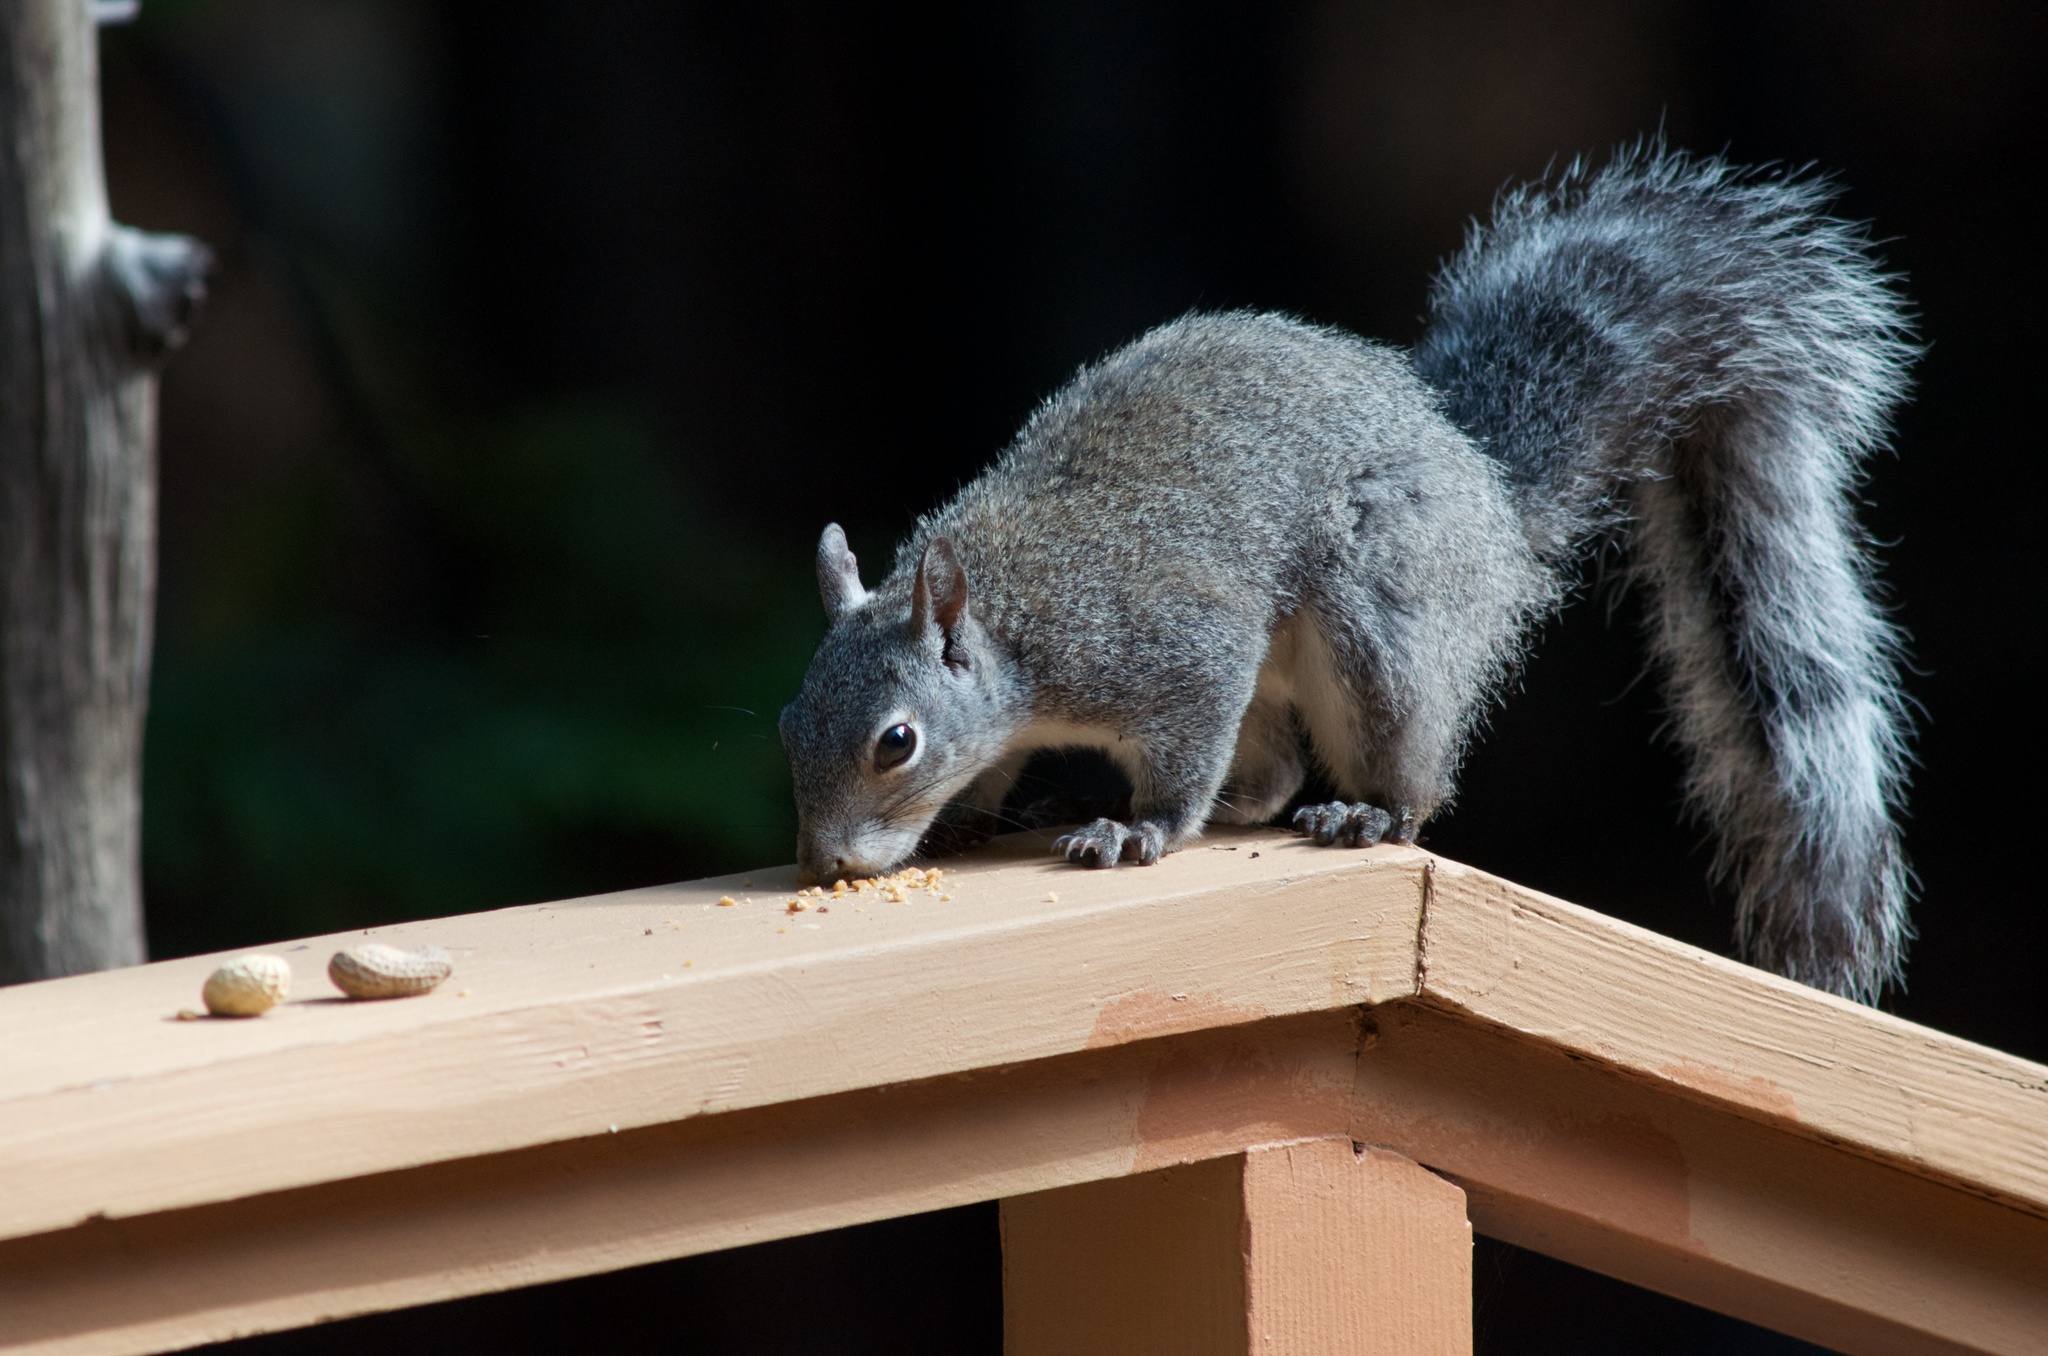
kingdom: Animalia
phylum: Chordata
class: Mammalia
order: Rodentia
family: Sciuridae
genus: Sciurus
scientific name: Sciurus griseus
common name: Western gray squirrel
